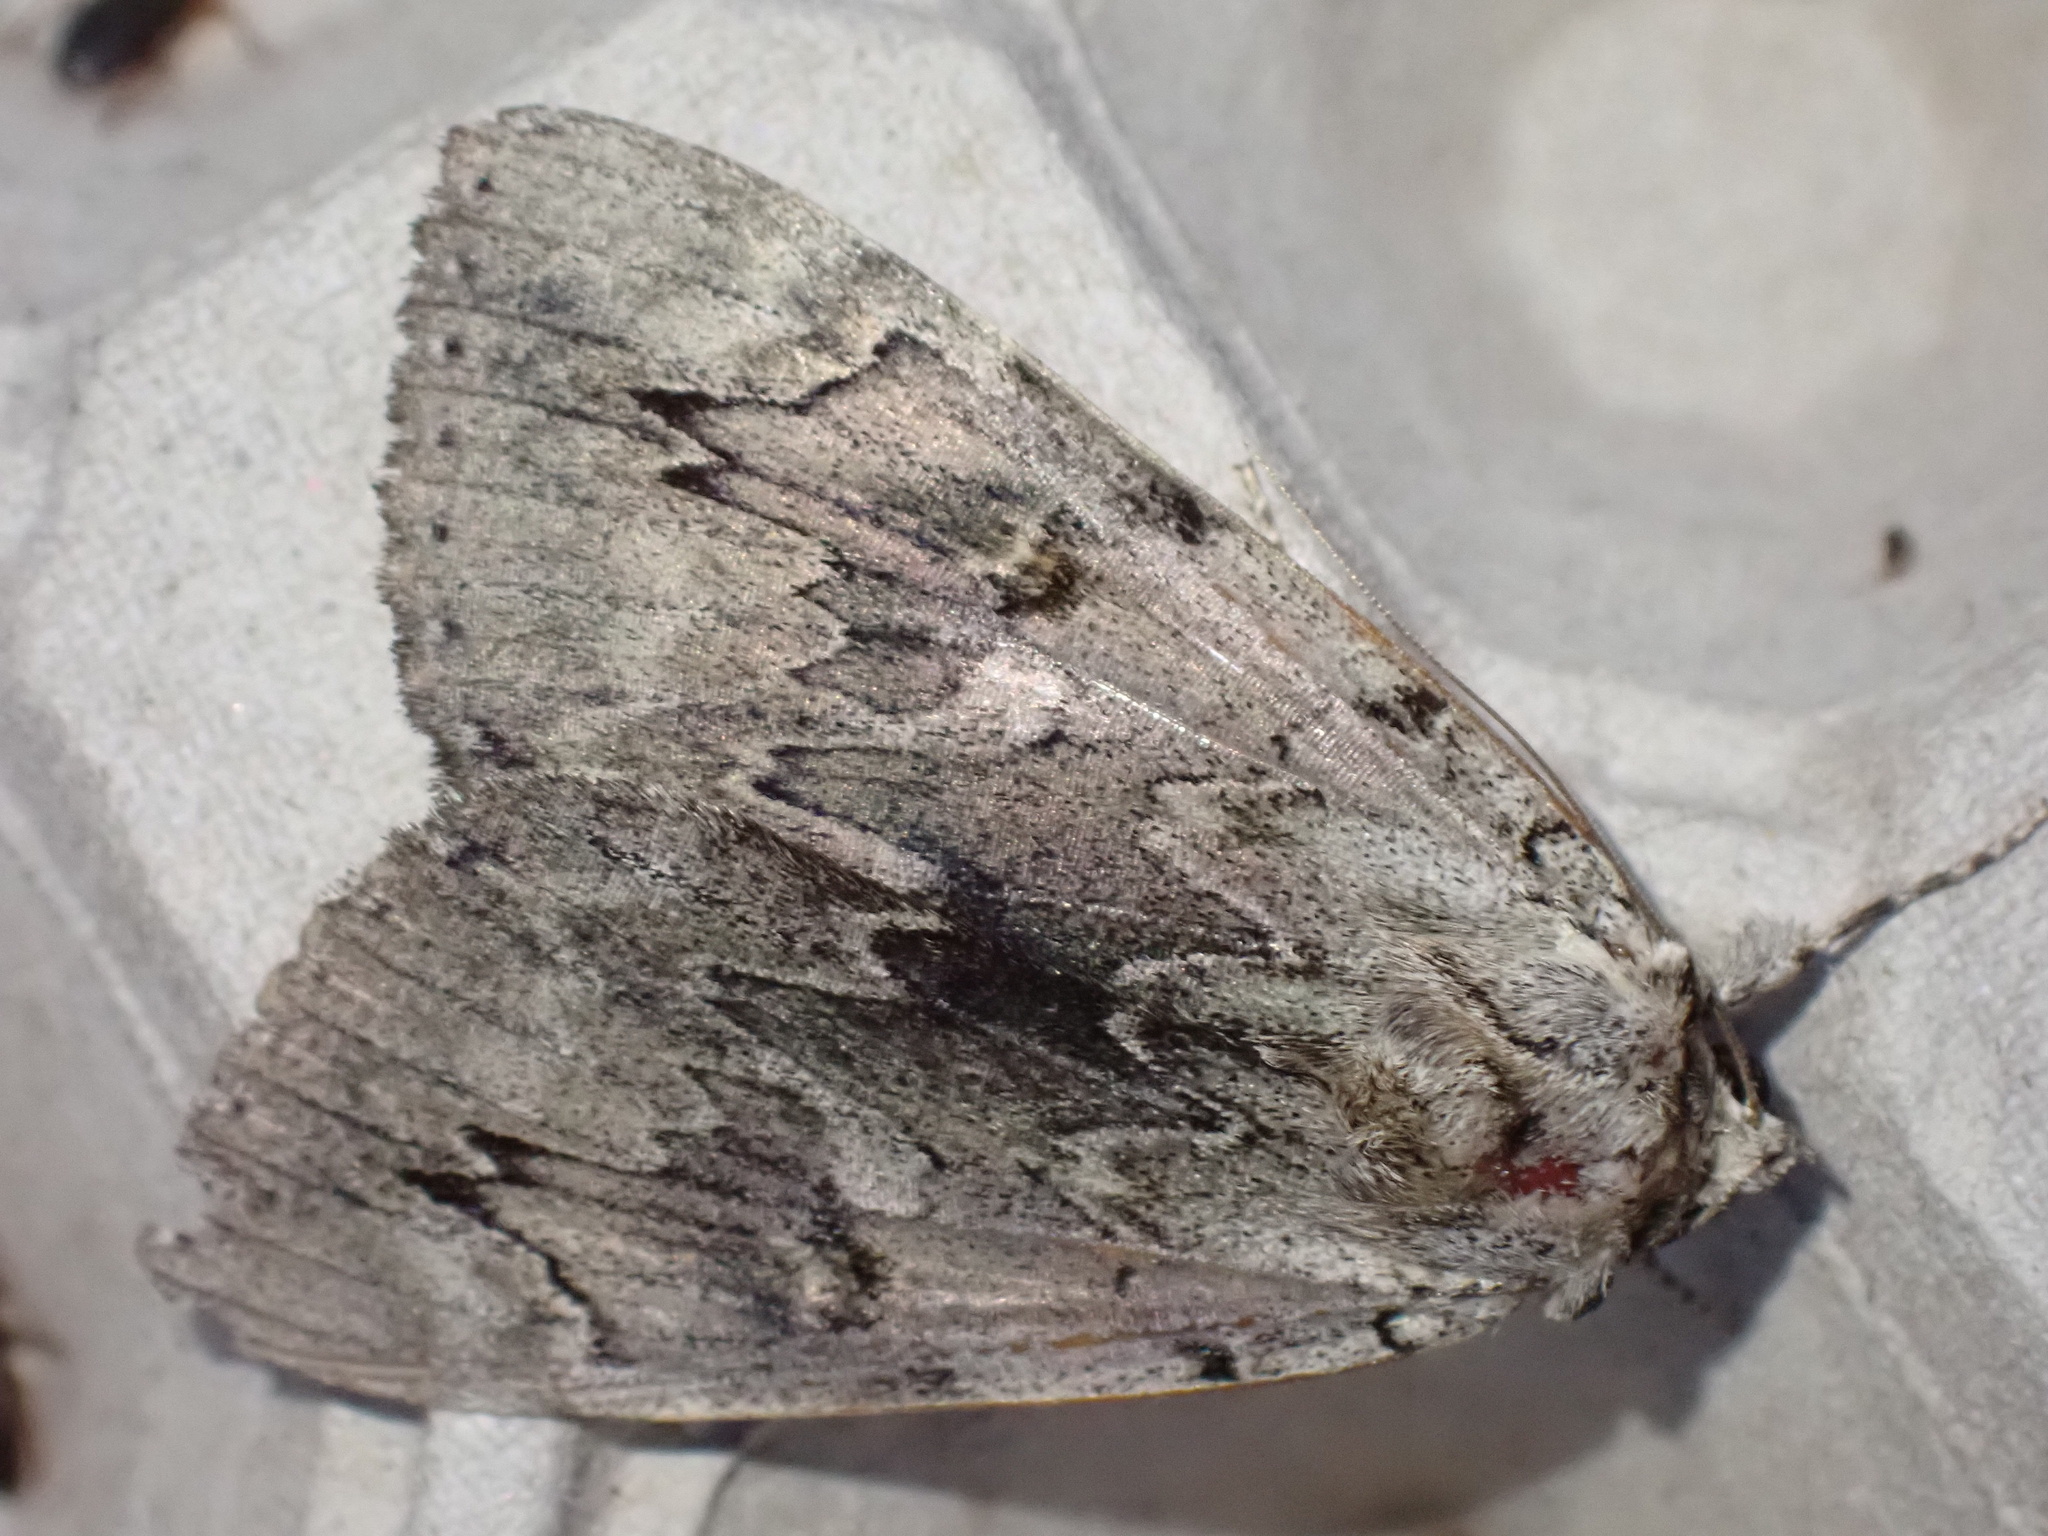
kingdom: Animalia
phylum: Arthropoda
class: Insecta
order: Lepidoptera
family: Erebidae
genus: Catocala
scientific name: Catocala electa
